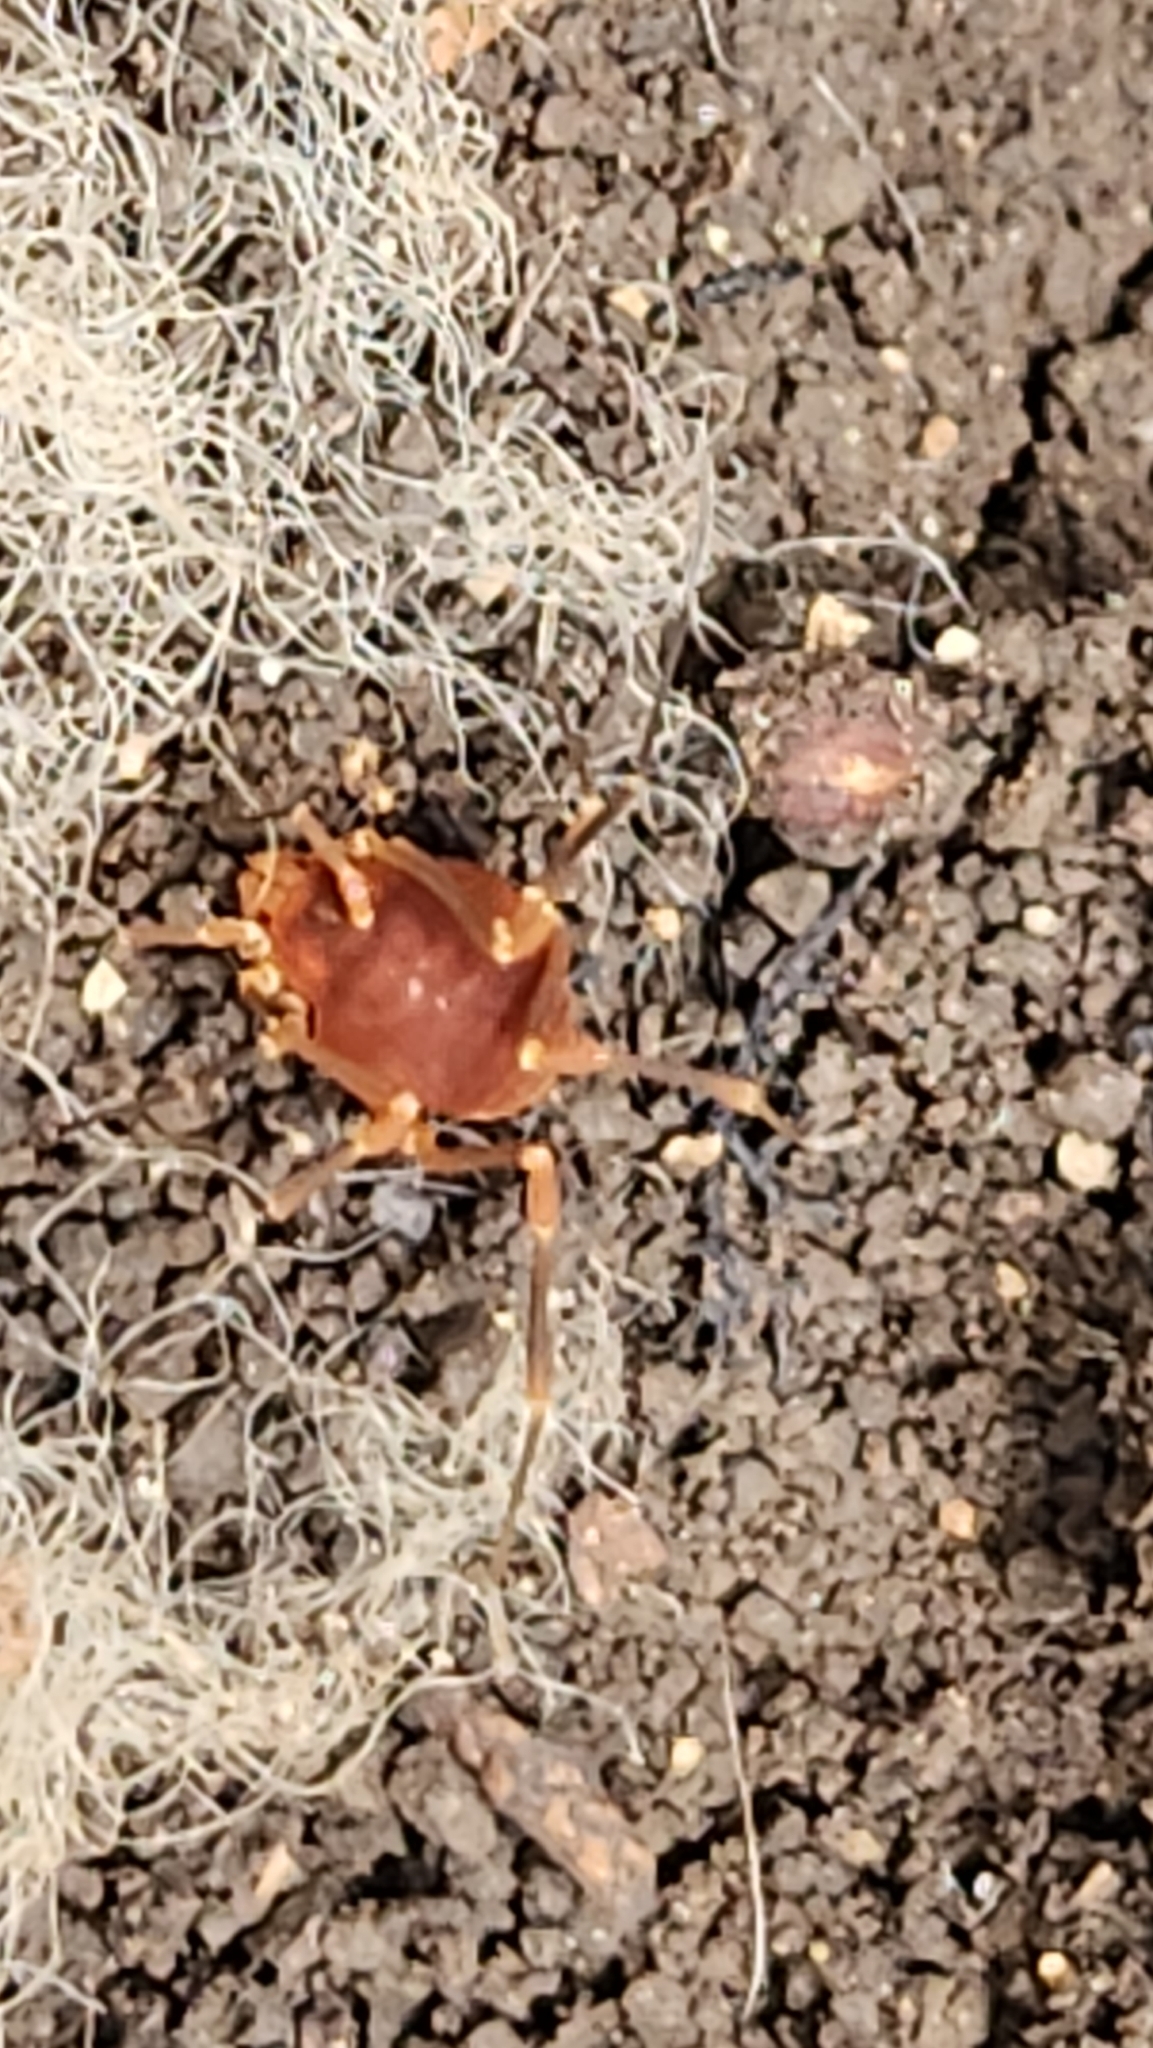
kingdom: Animalia
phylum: Arthropoda
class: Arachnida
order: Opiliones
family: Cosmetidae
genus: Libitioides
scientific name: Libitioides sayi
